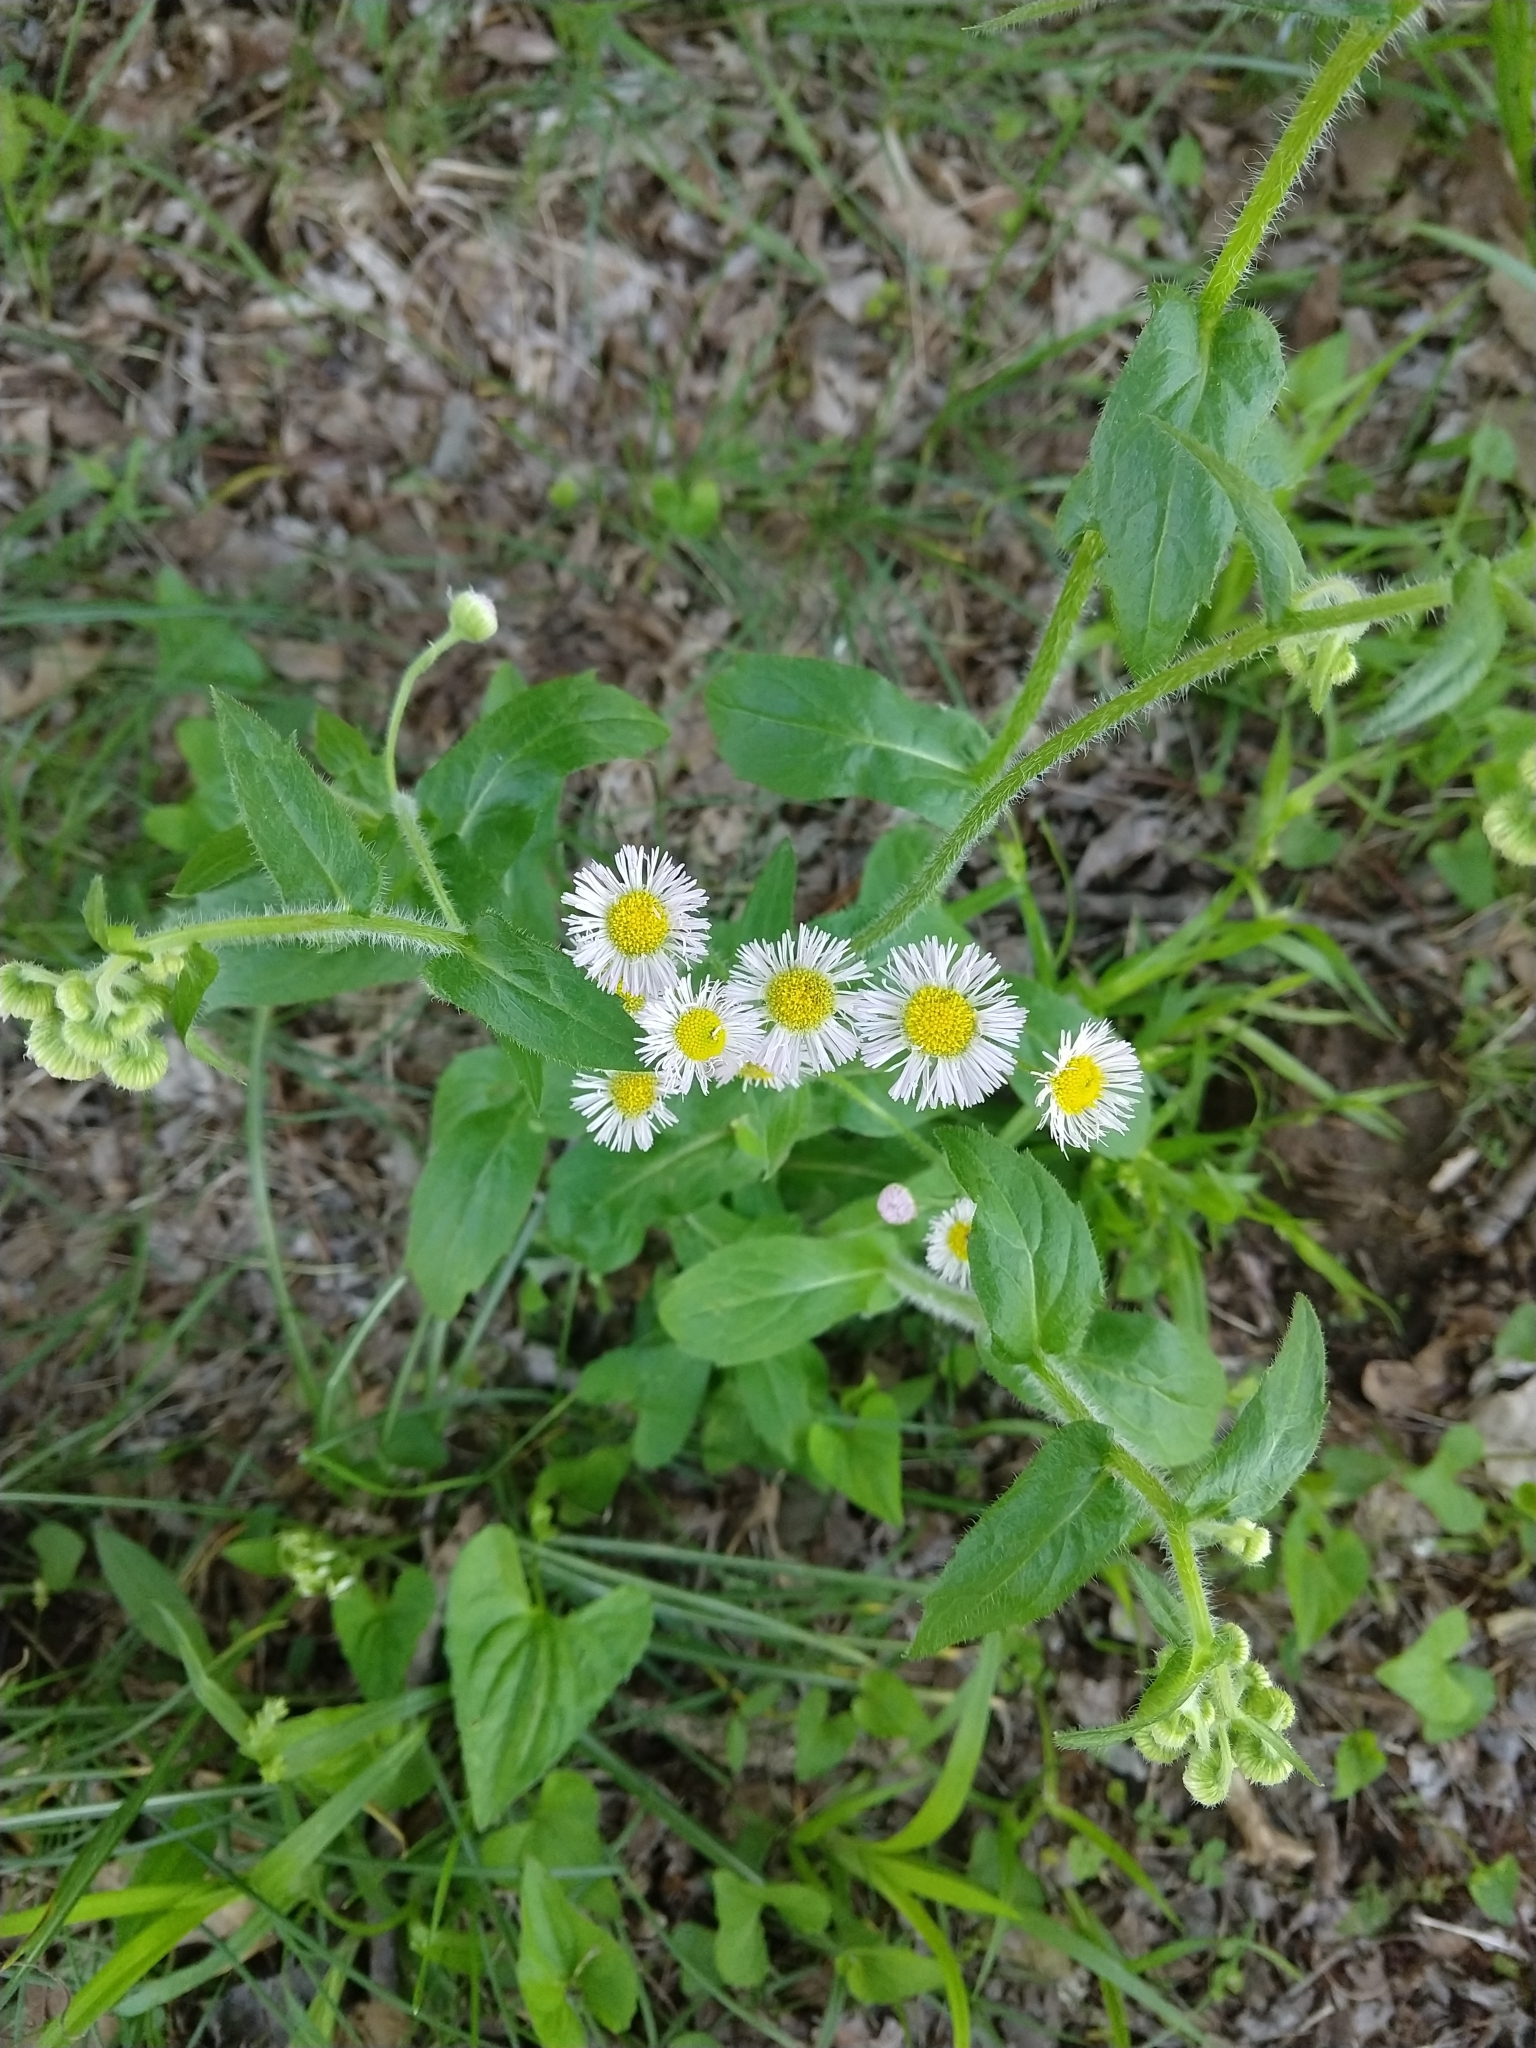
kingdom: Plantae
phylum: Tracheophyta
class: Magnoliopsida
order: Asterales
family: Asteraceae
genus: Erigeron
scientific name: Erigeron philadelphicus
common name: Robin's-plantain
